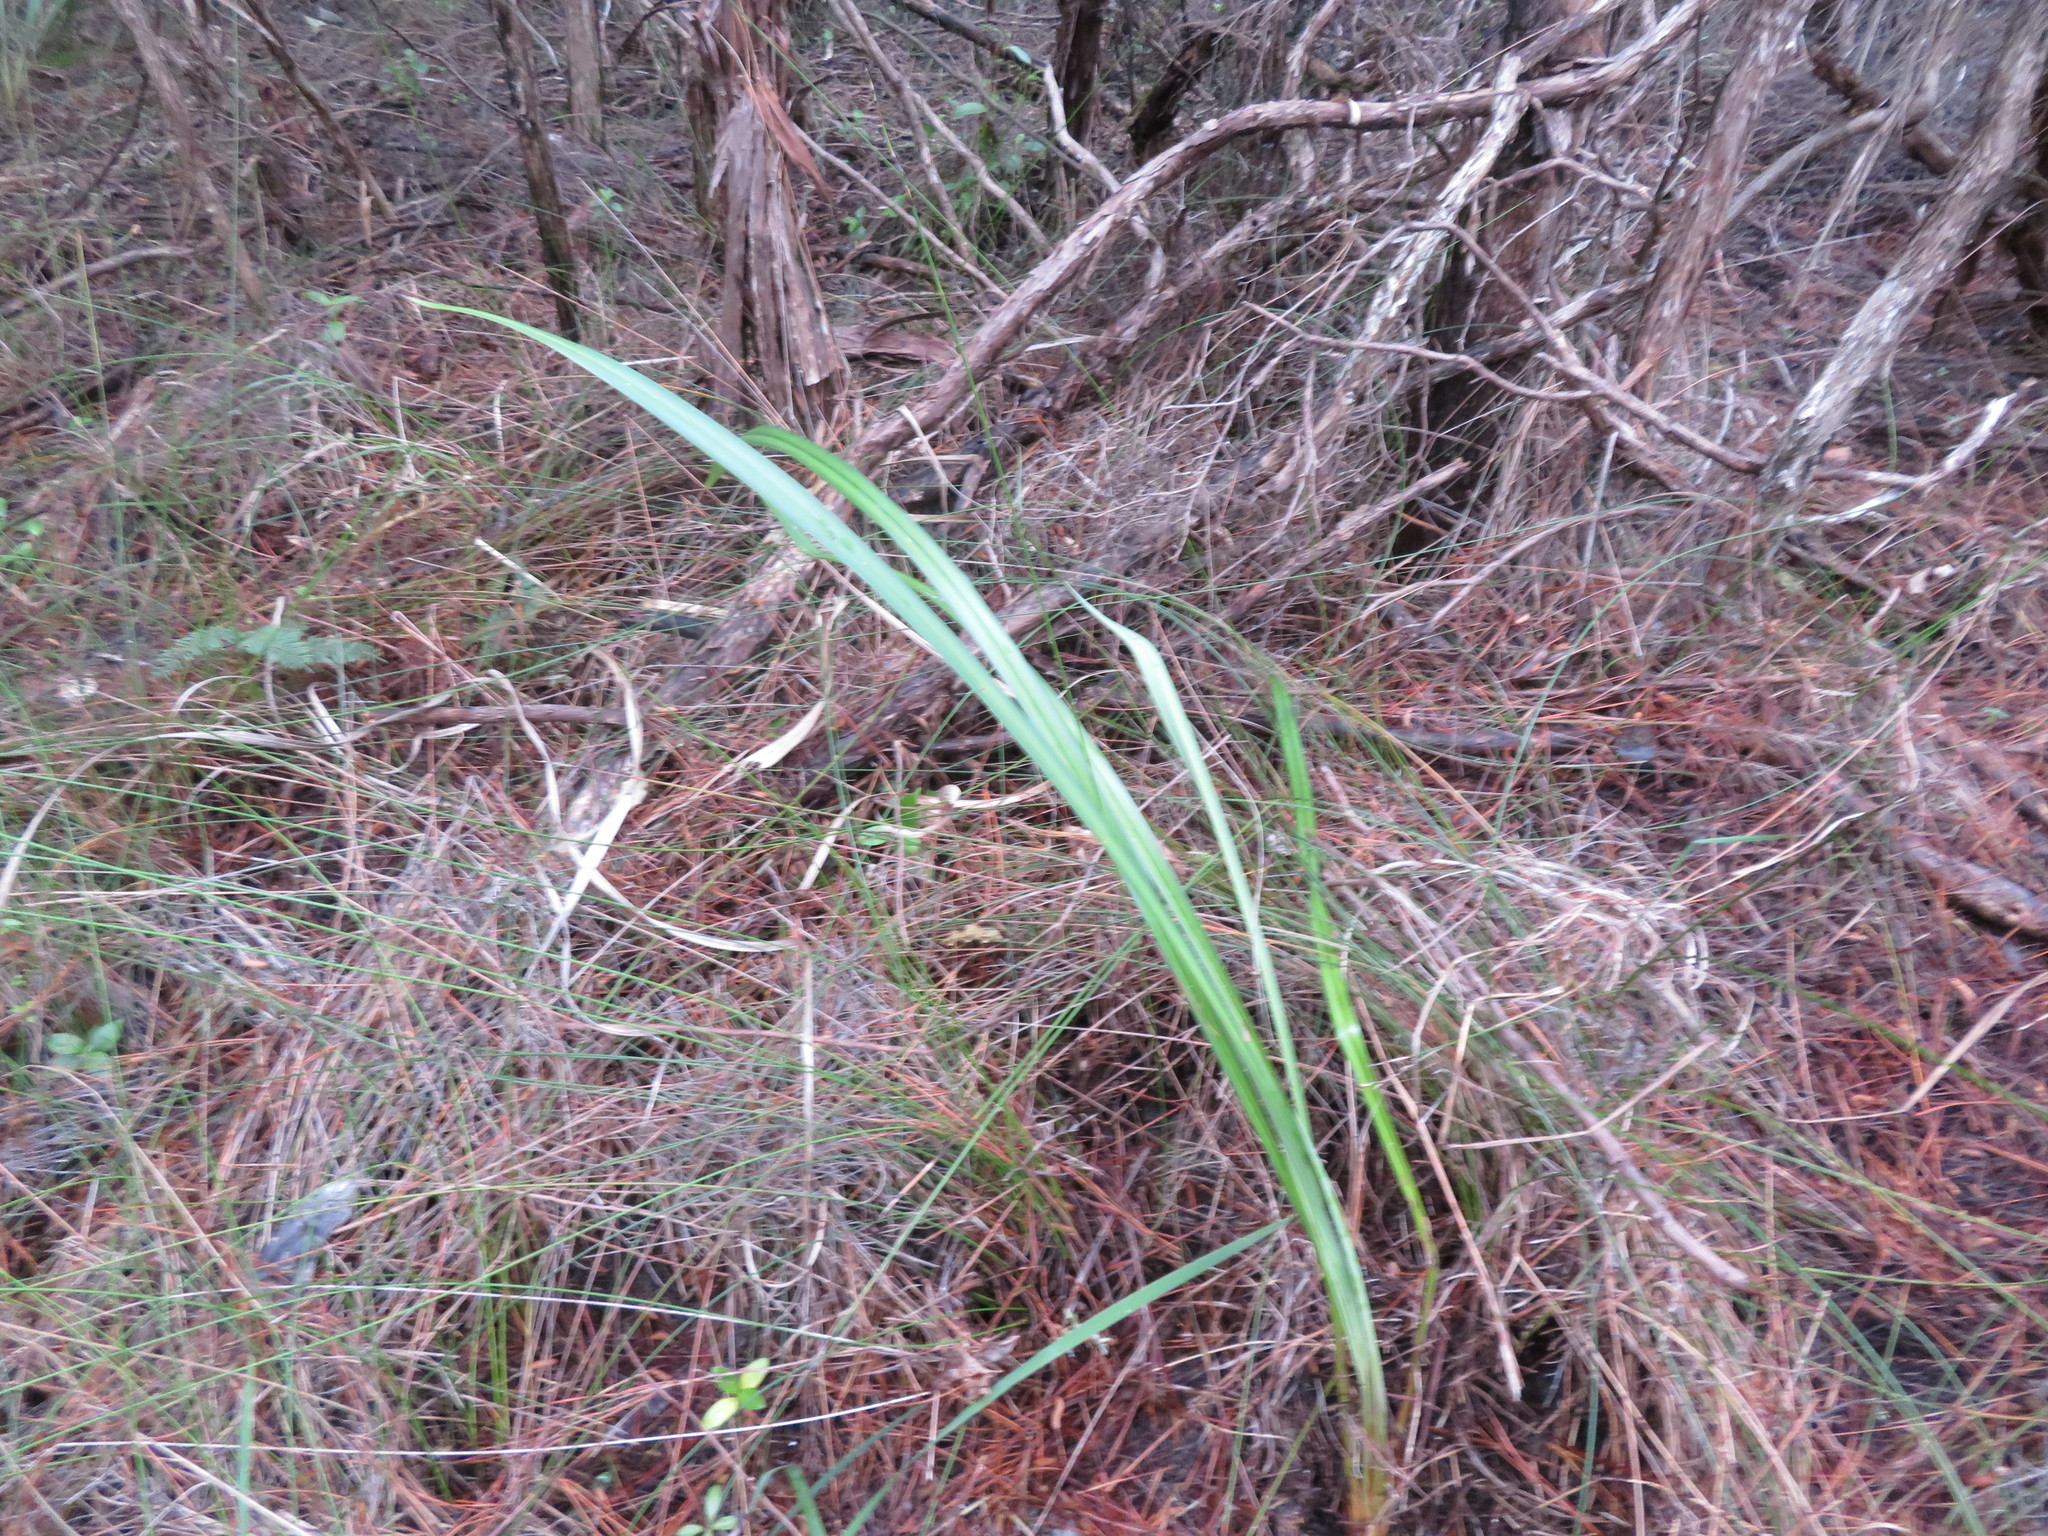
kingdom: Plantae
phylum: Tracheophyta
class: Liliopsida
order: Asparagales
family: Asphodelaceae
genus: Dianella
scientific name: Dianella nigra
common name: New zealand-blueberry
